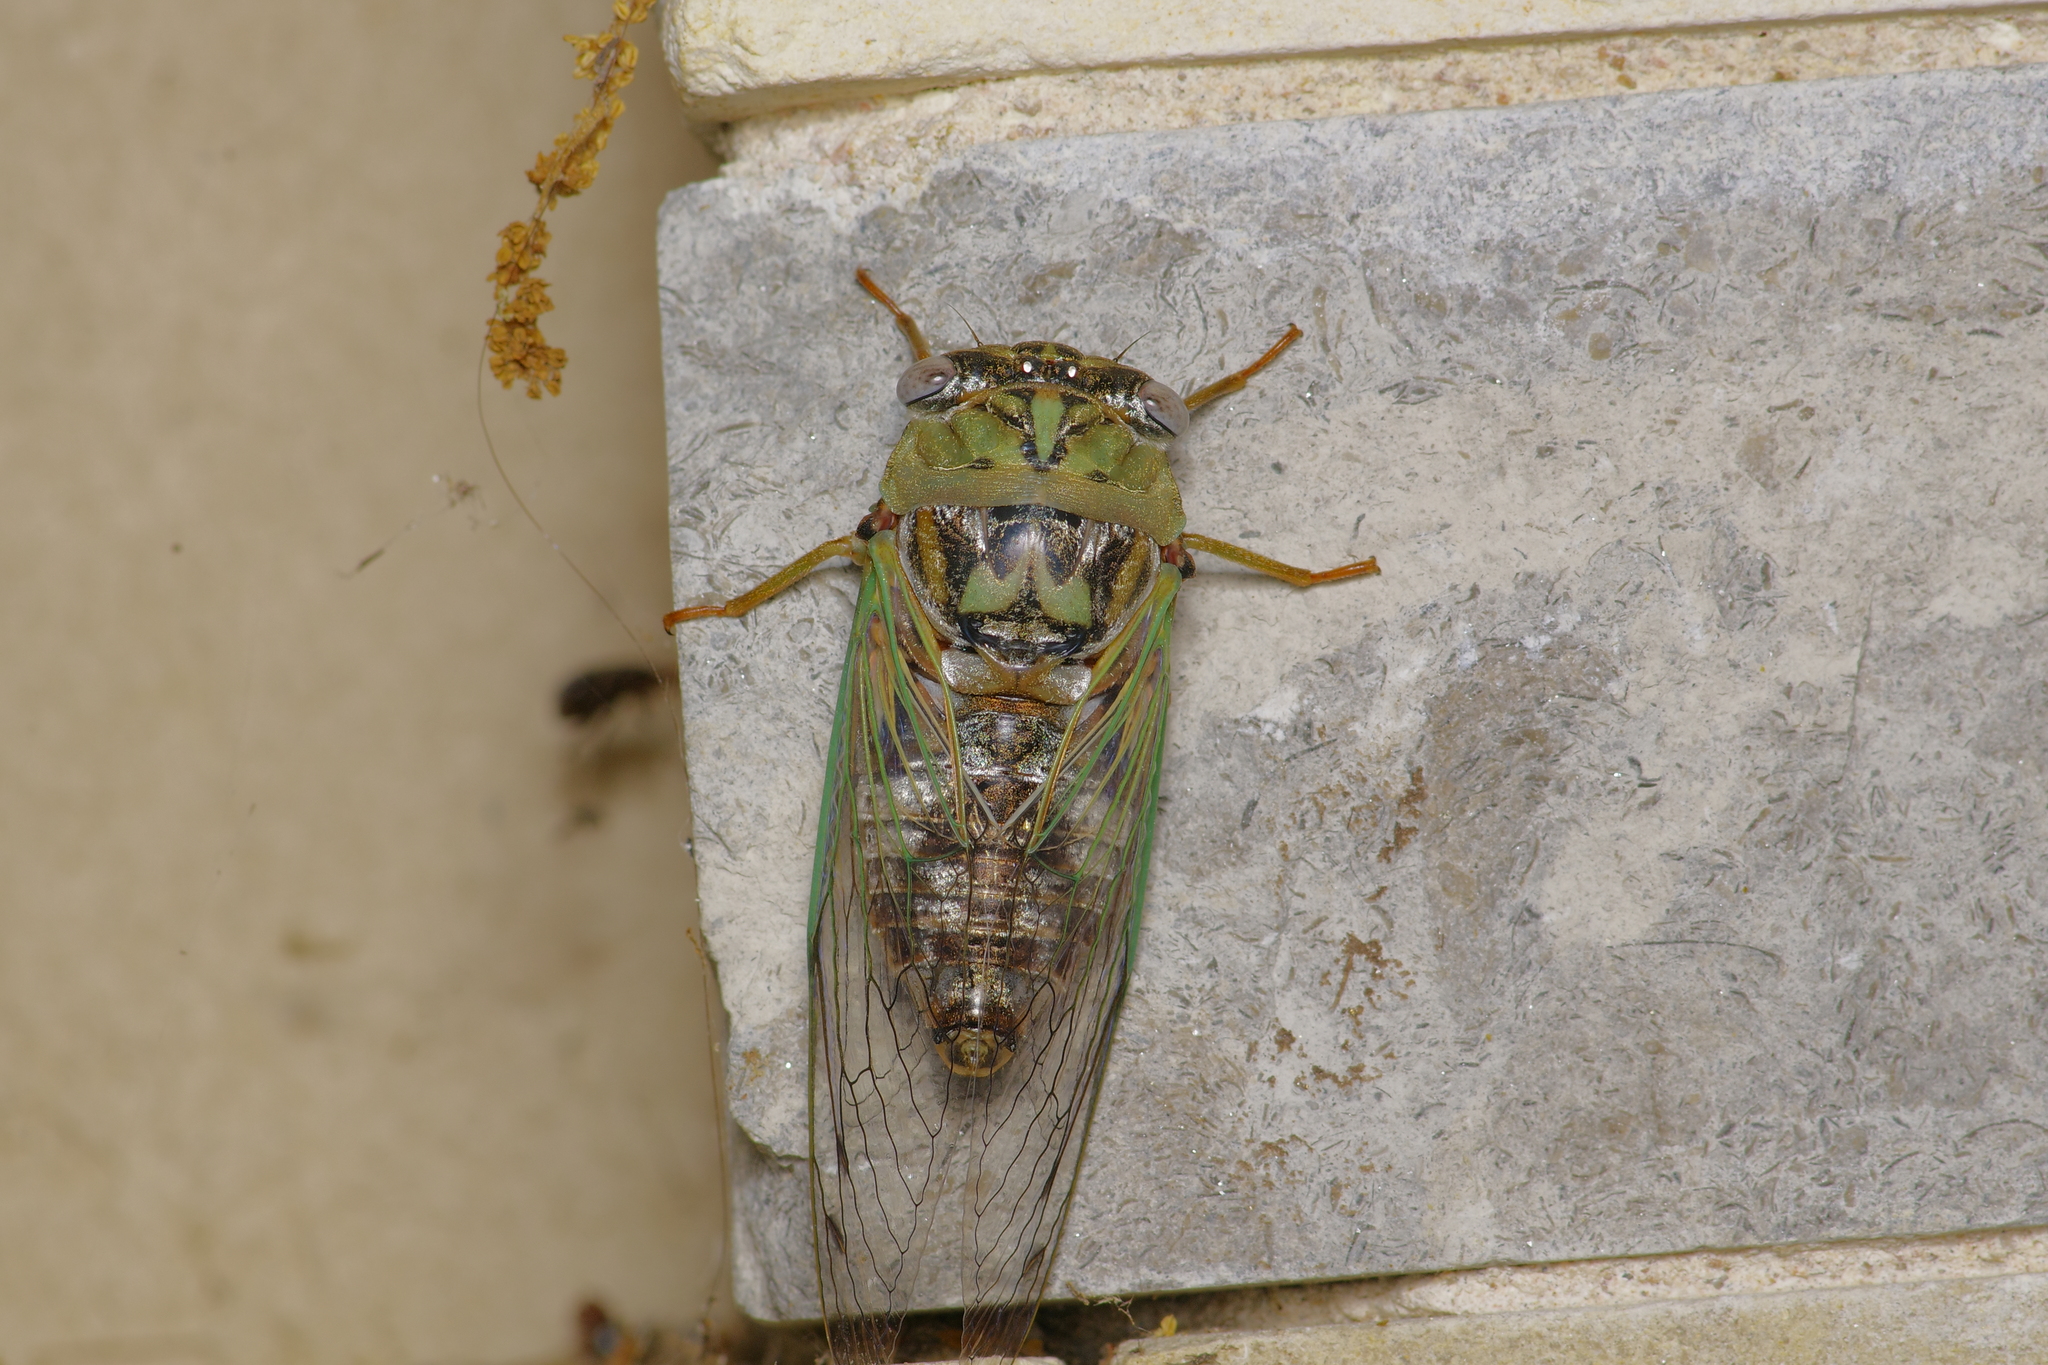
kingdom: Animalia
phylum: Arthropoda
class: Insecta
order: Hemiptera
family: Cicadidae
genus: Megatibicen
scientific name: Megatibicen resh
